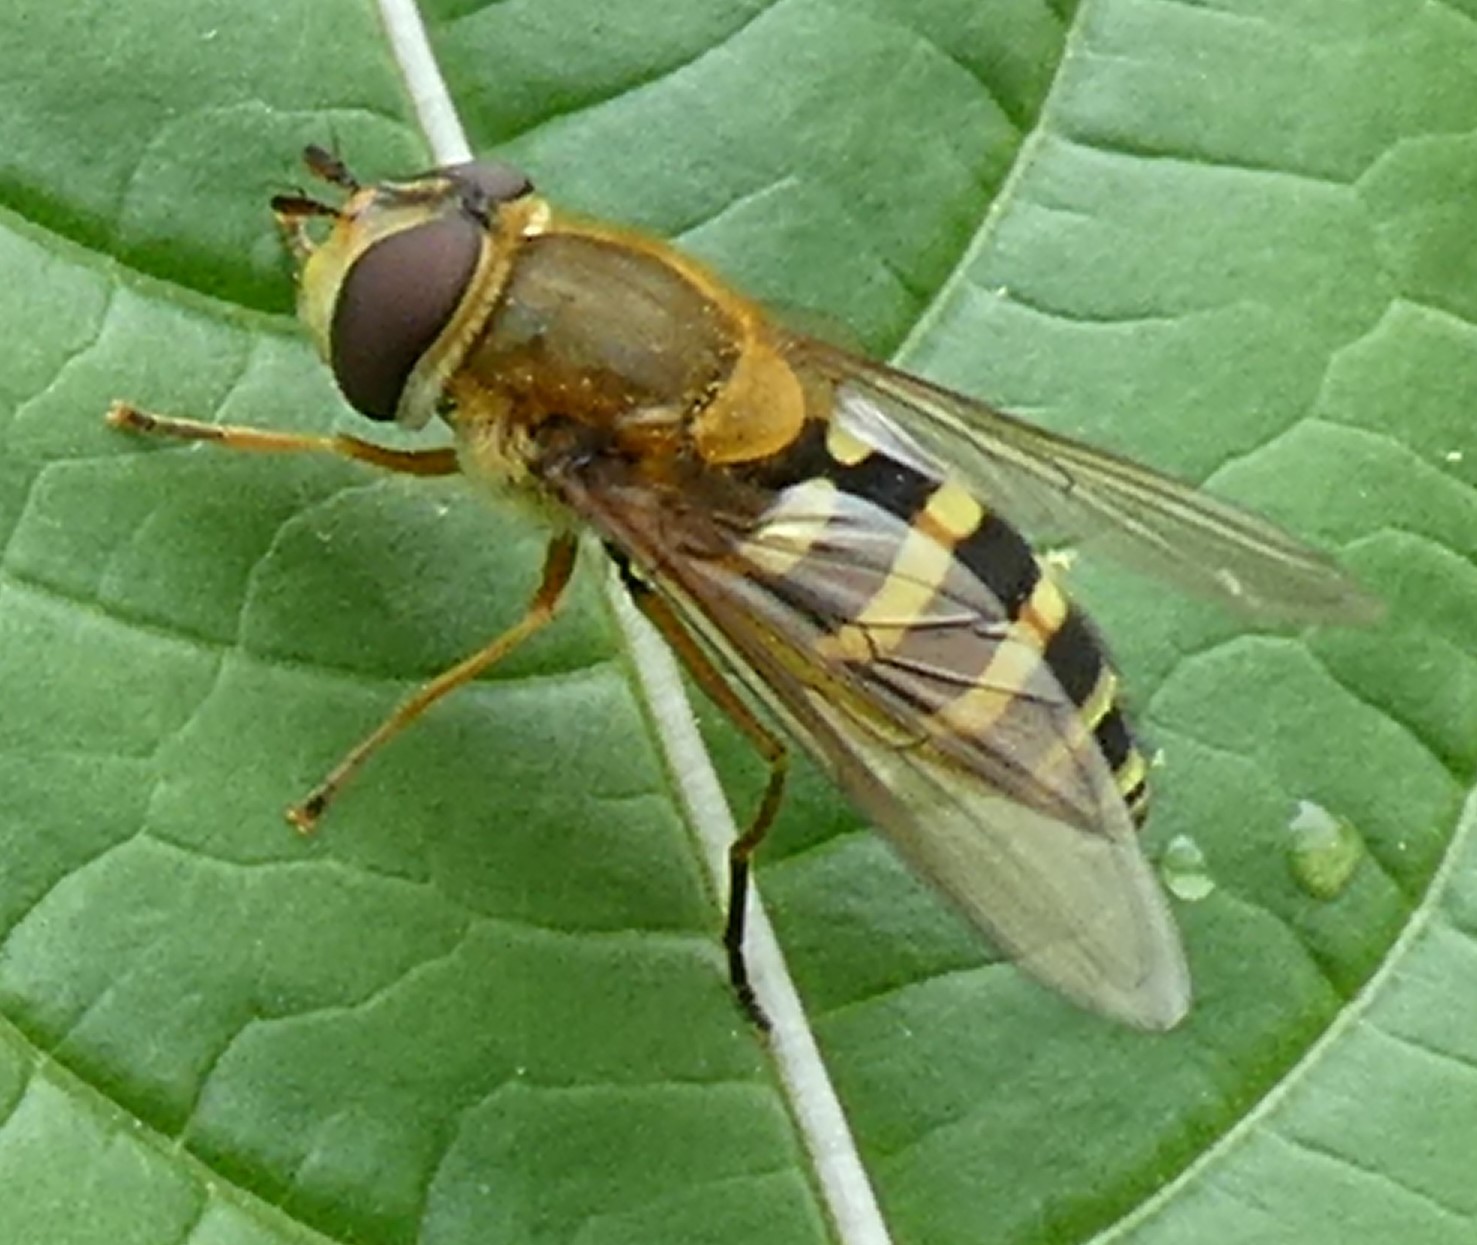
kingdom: Animalia
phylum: Arthropoda
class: Insecta
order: Diptera
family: Syrphidae
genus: Syrphus
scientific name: Syrphus ribesii
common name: Common flower fly
